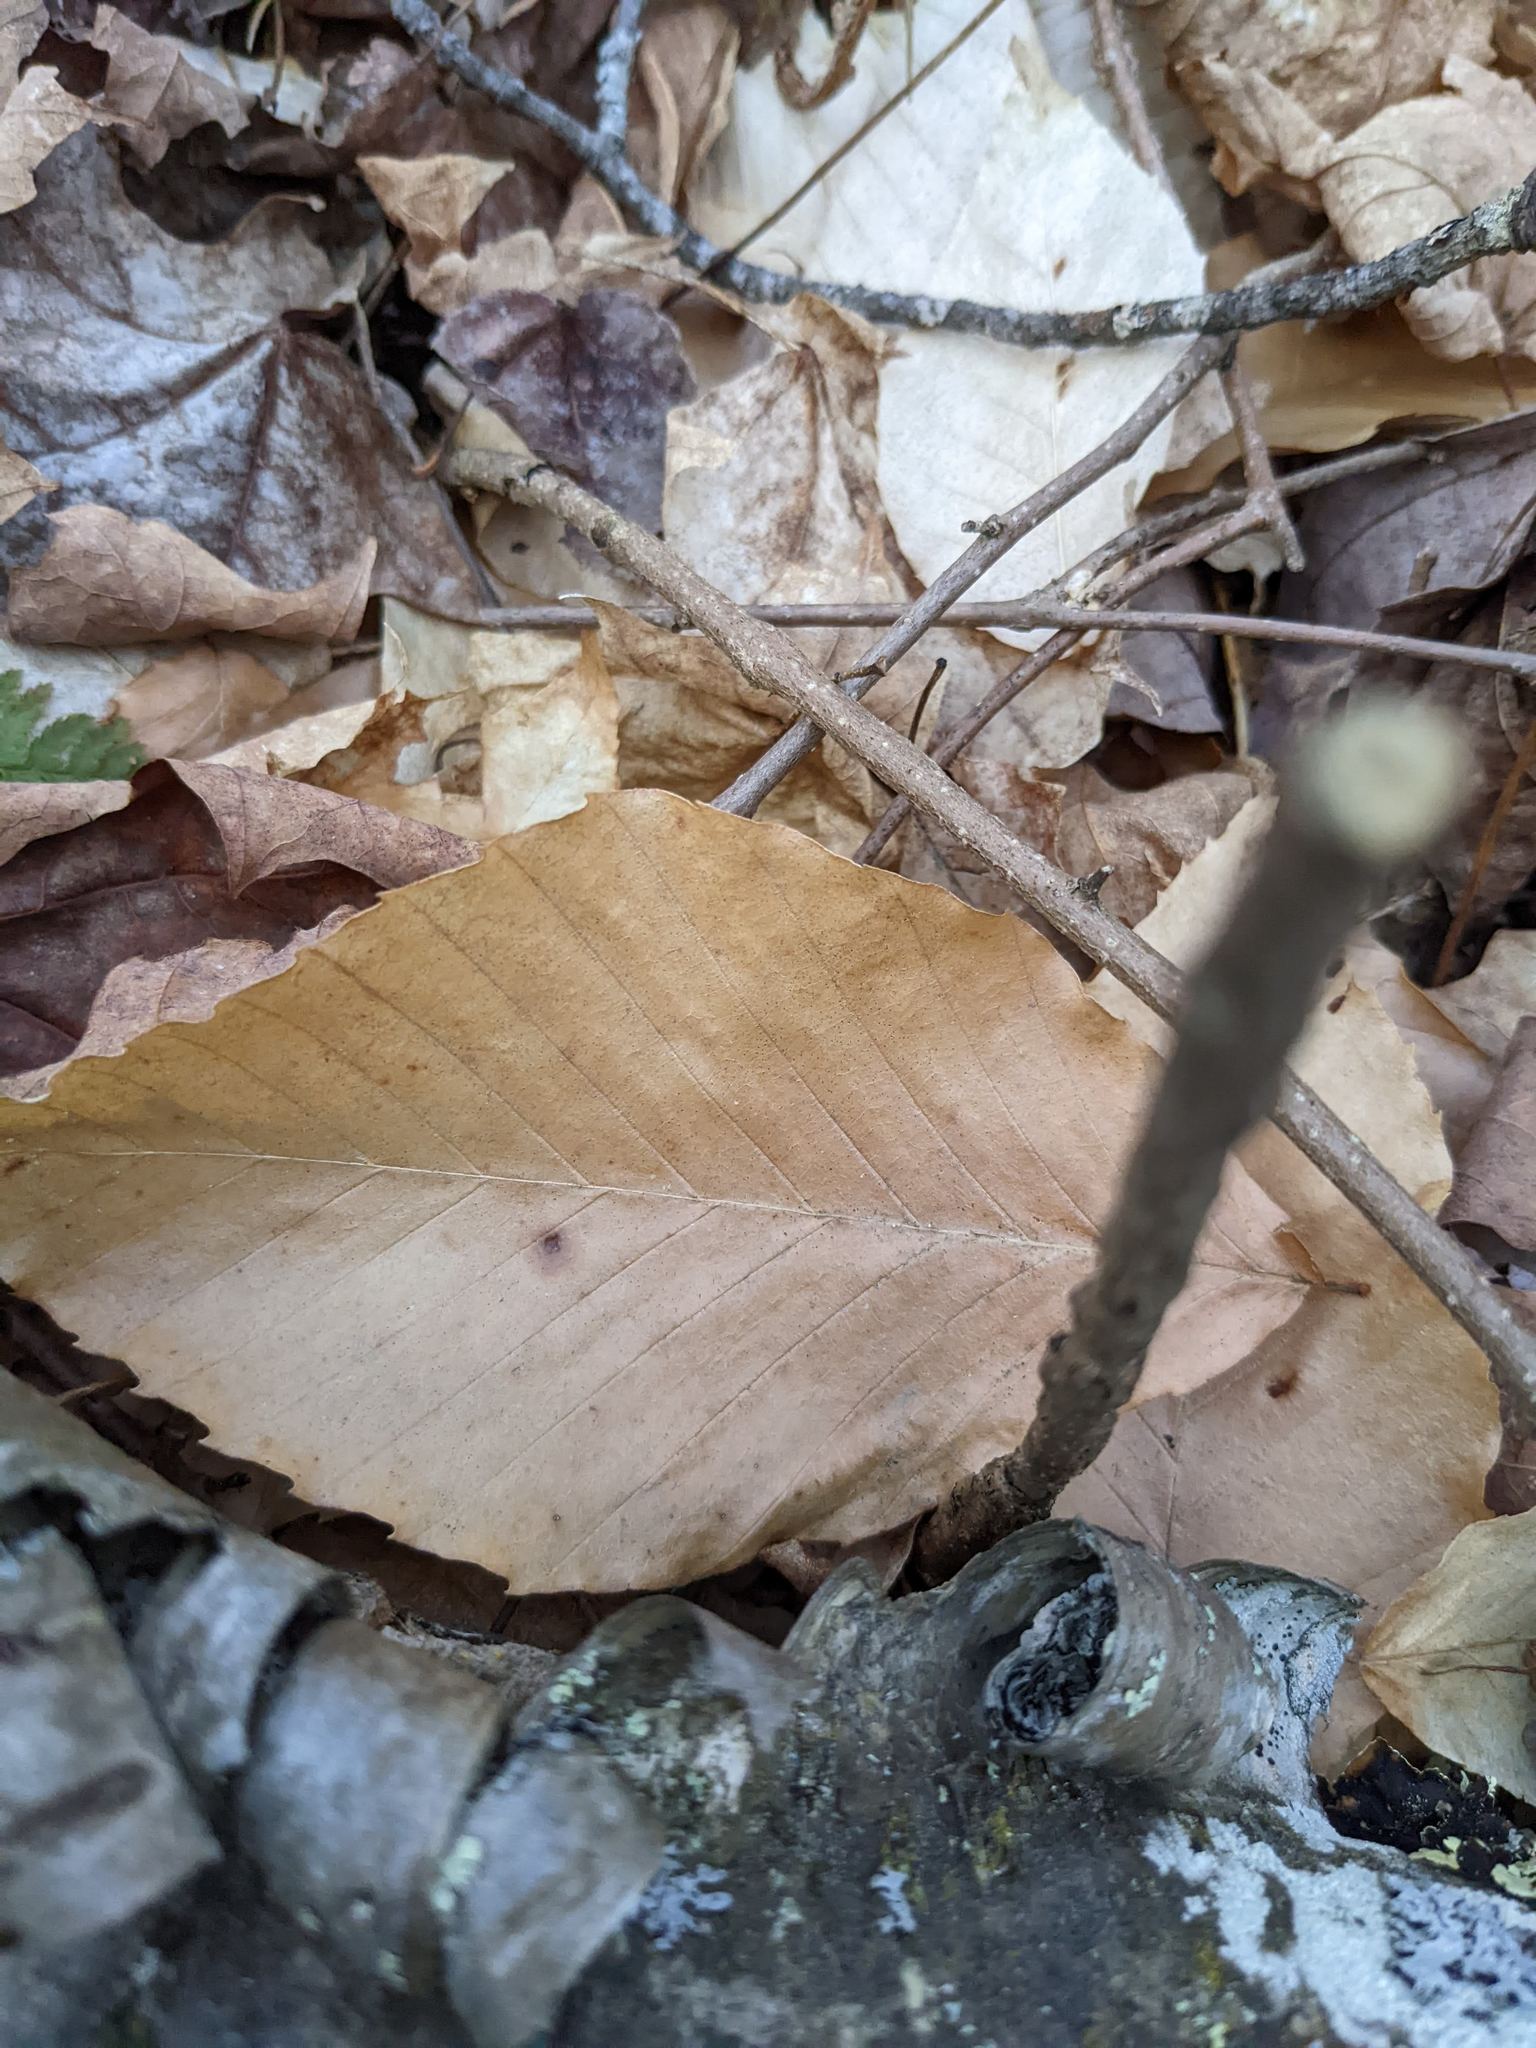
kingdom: Plantae
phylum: Tracheophyta
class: Magnoliopsida
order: Fagales
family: Fagaceae
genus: Fagus
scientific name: Fagus grandifolia
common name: American beech
